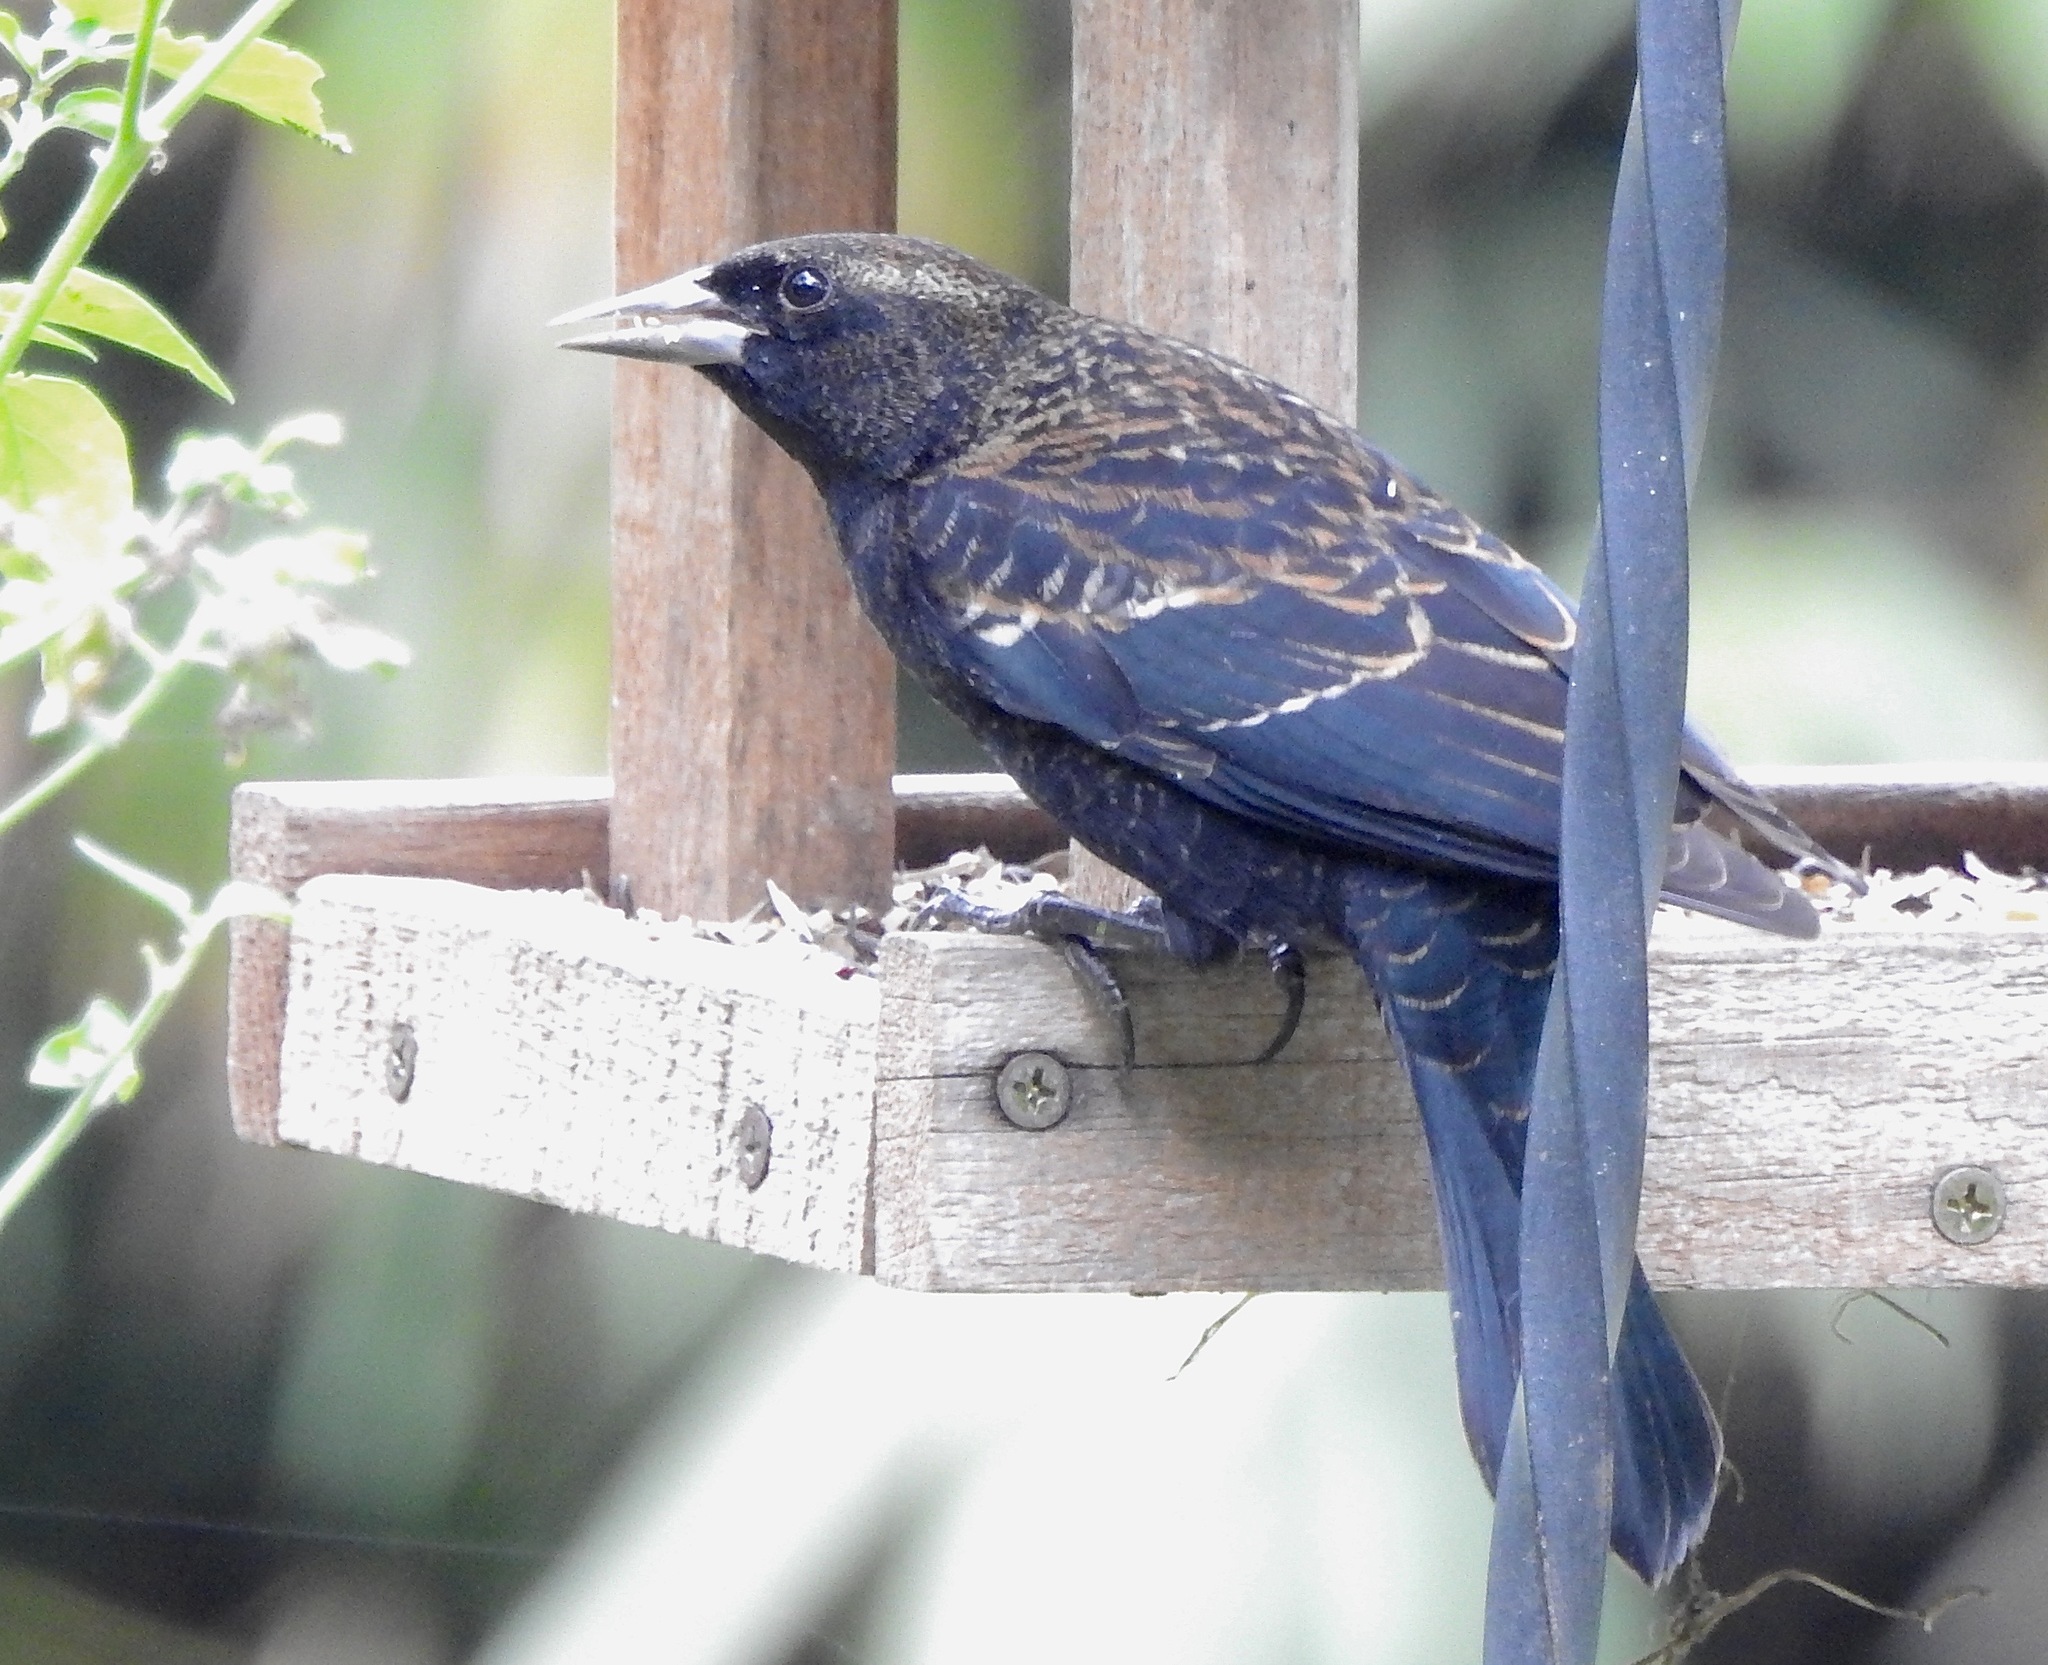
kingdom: Animalia
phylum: Chordata
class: Aves
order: Passeriformes
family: Icteridae
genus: Agelaius
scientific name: Agelaius phoeniceus
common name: Red-winged blackbird
